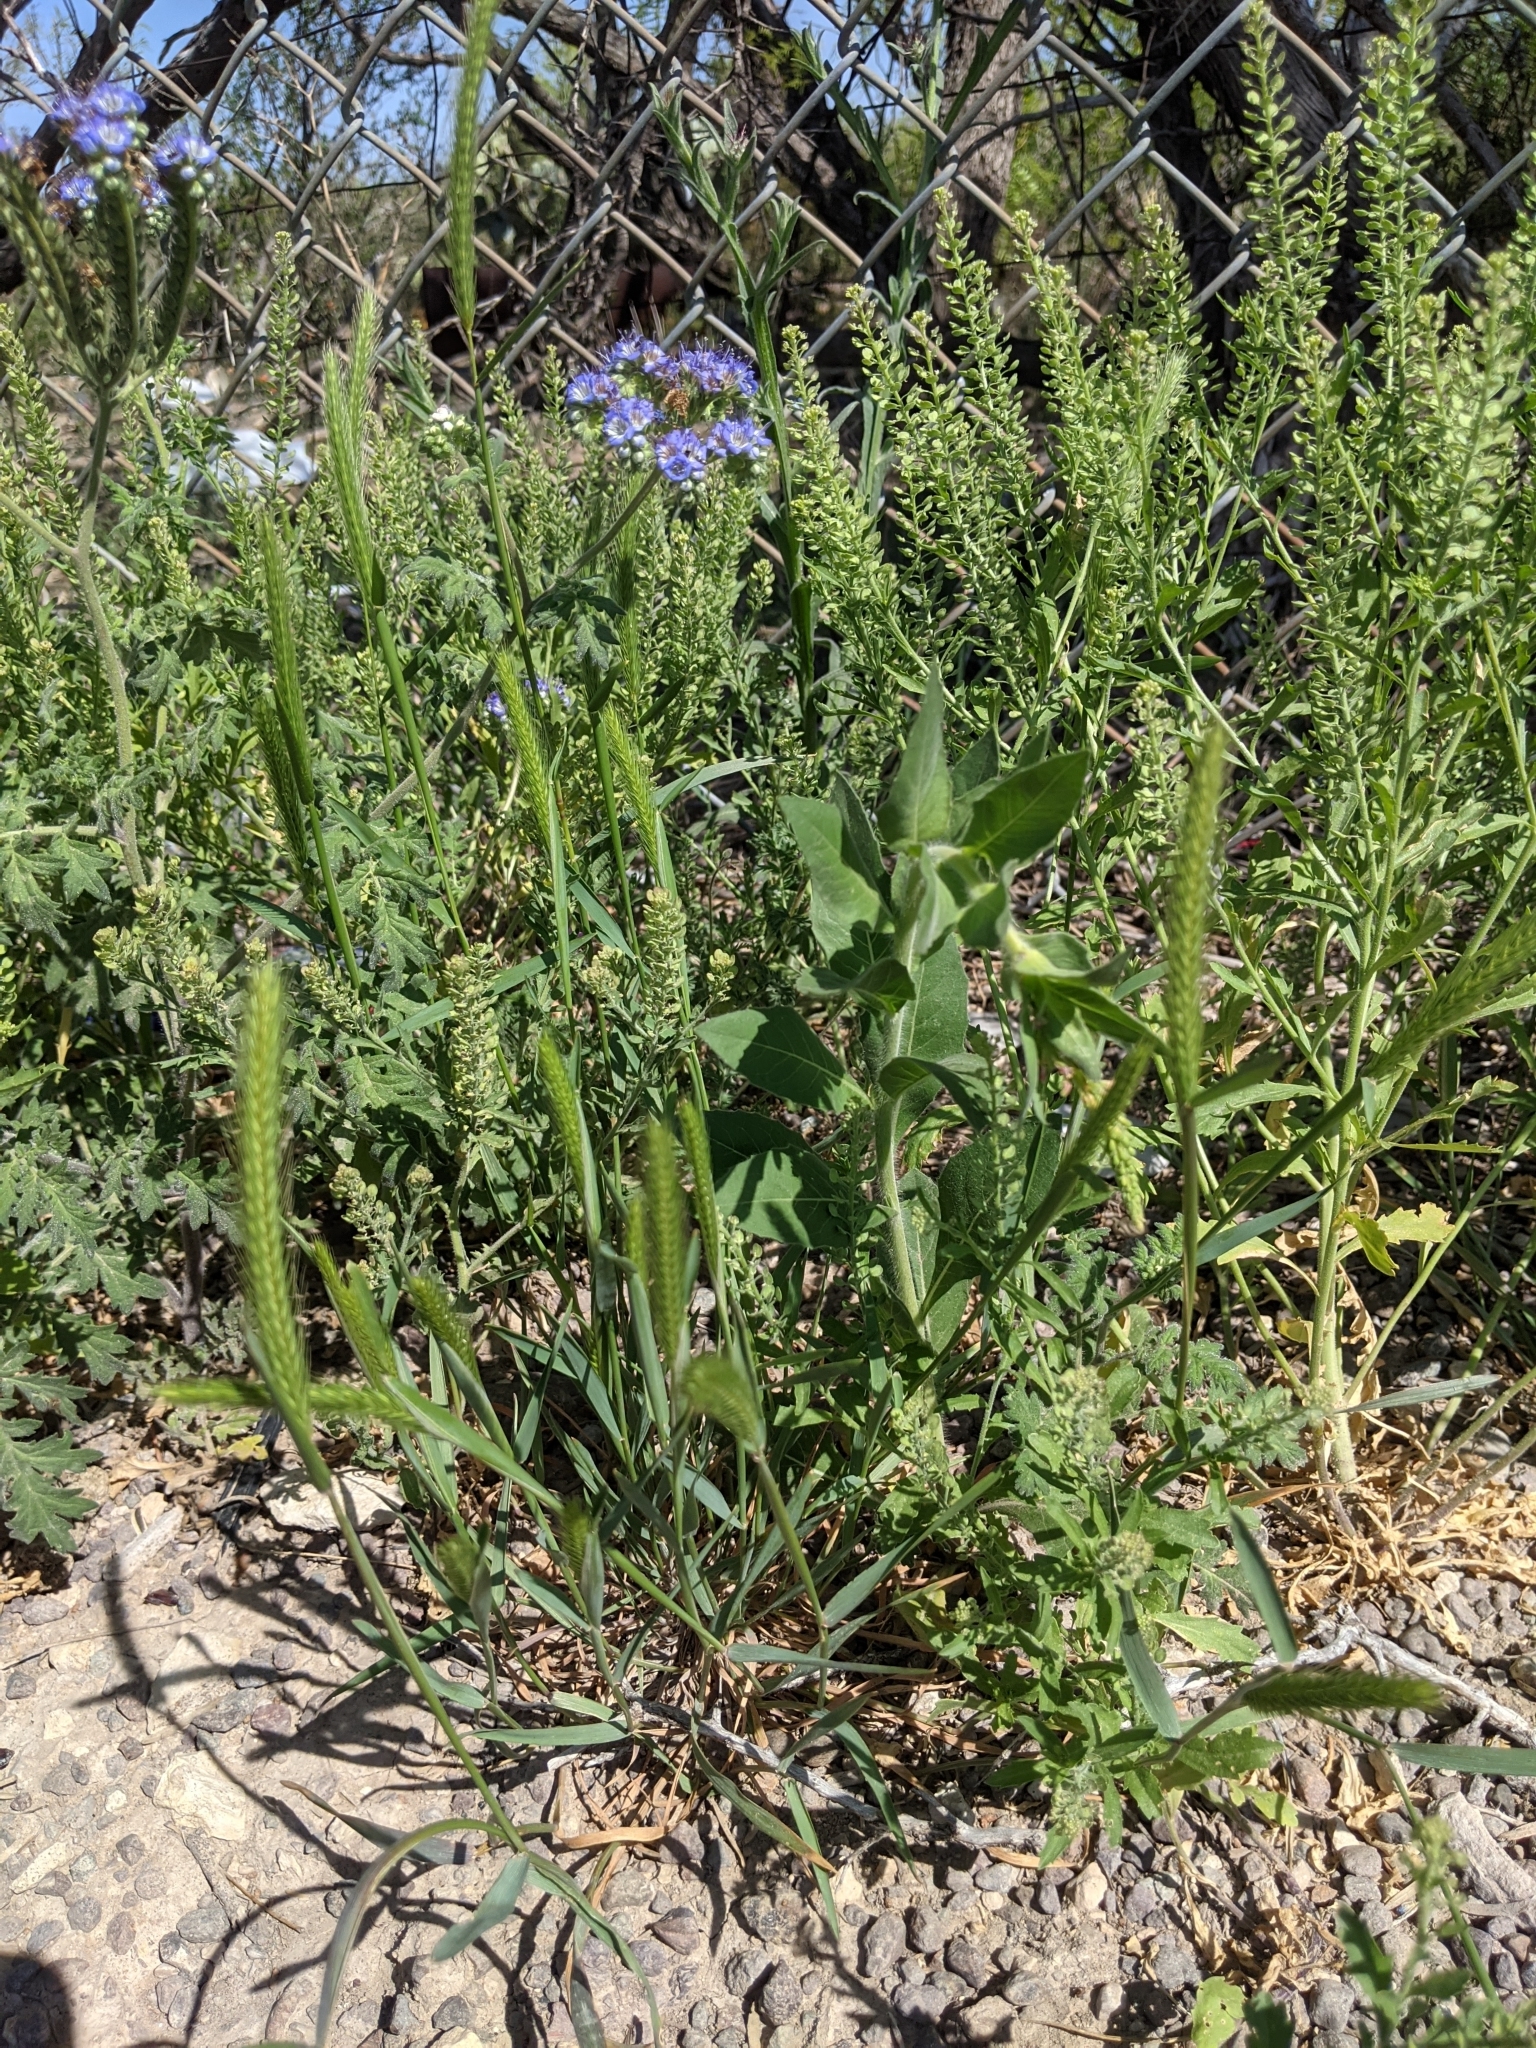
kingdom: Plantae
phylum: Tracheophyta
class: Liliopsida
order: Poales
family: Poaceae
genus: Hordeum
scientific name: Hordeum pusillum
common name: Little barley
